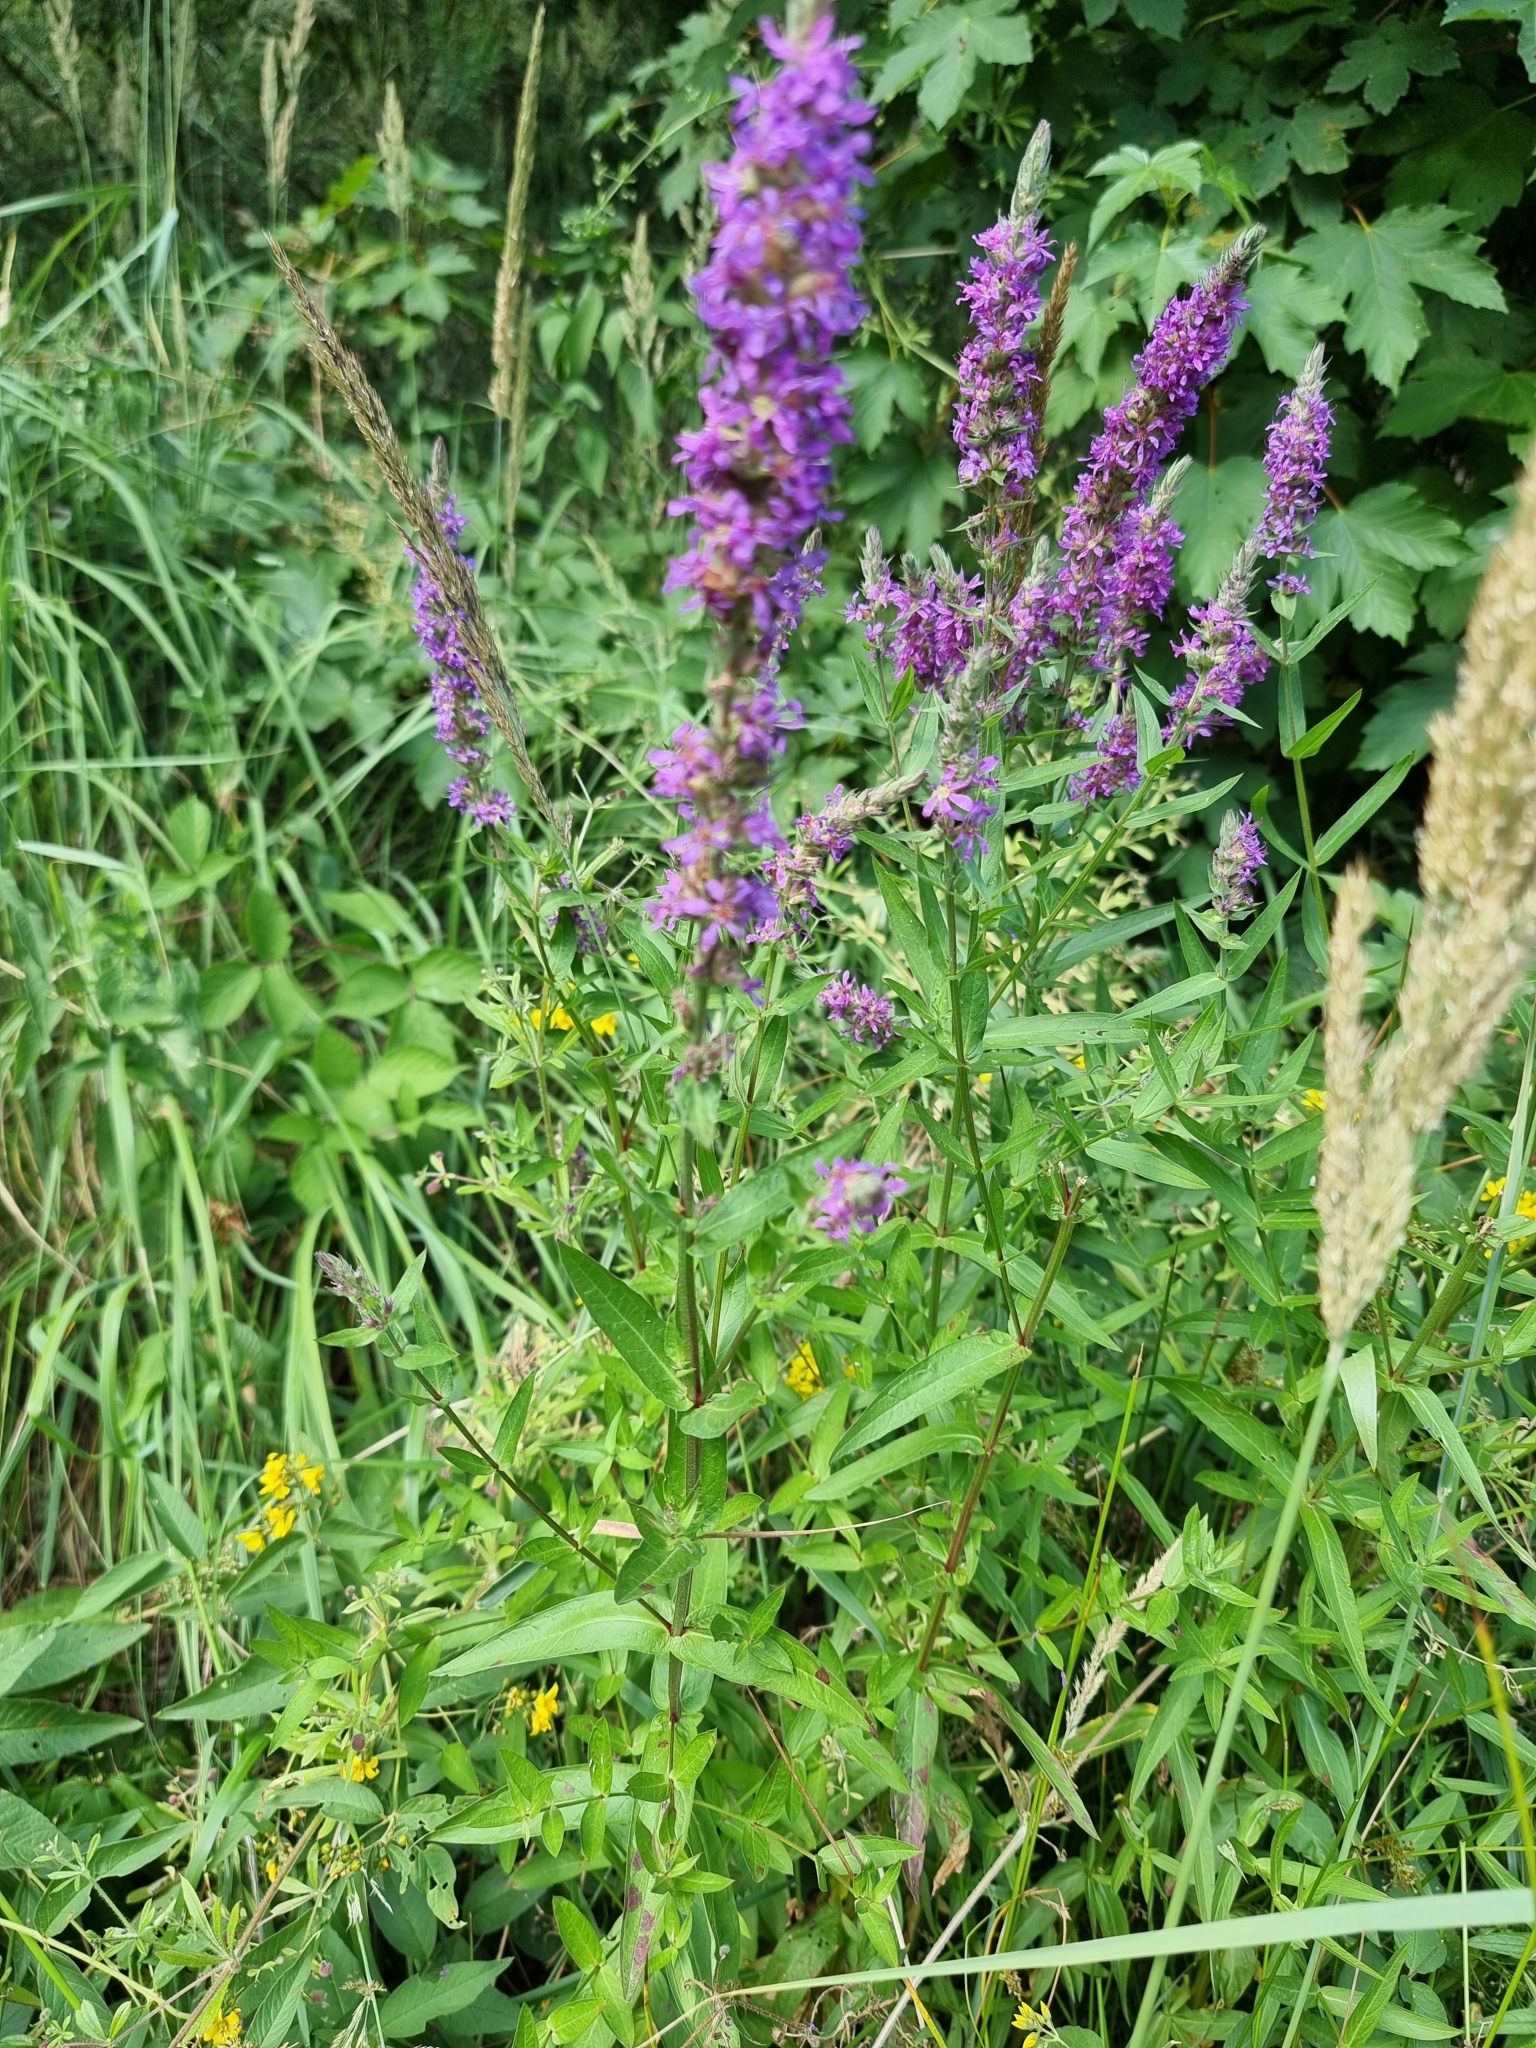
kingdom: Plantae
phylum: Tracheophyta
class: Magnoliopsida
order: Myrtales
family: Lythraceae
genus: Lythrum
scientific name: Lythrum salicaria
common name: Purple loosestrife
